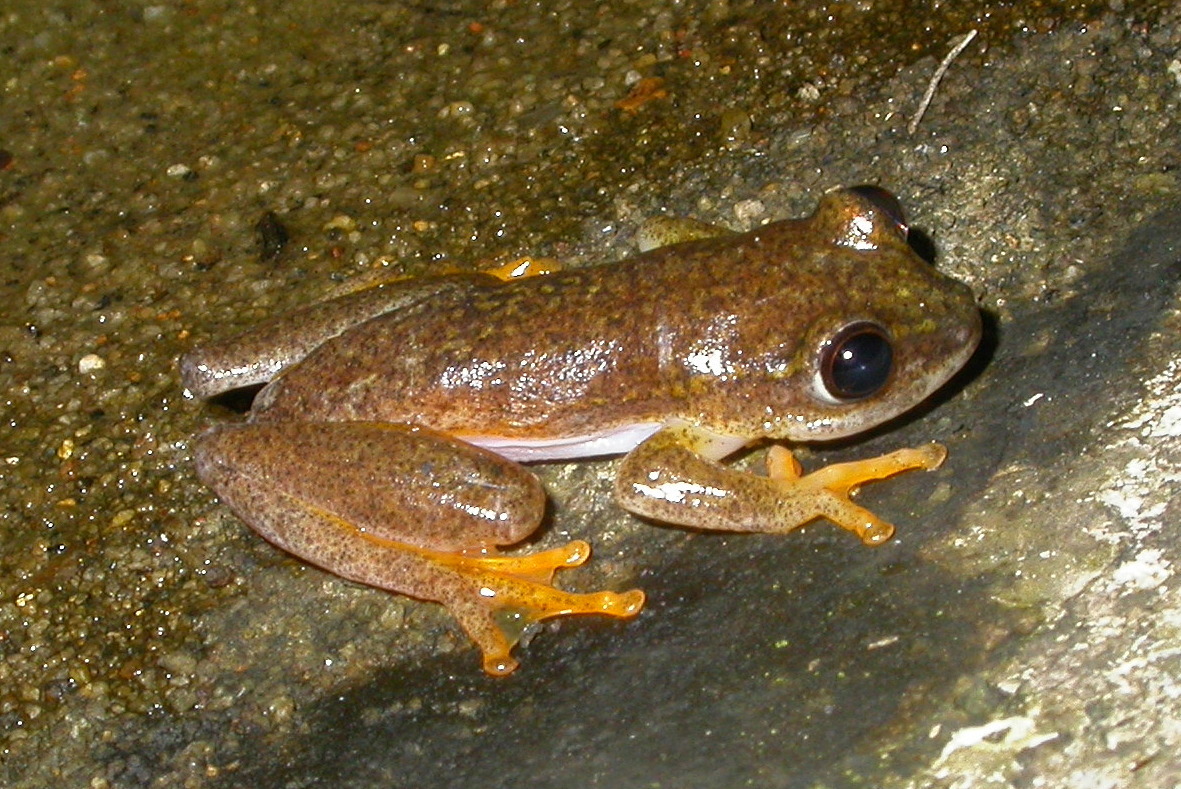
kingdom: Animalia
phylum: Chordata
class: Amphibia
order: Anura
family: Hyperoliidae
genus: Heterixalus
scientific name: Heterixalus alboguttatus
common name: Whitebelly reed frog
